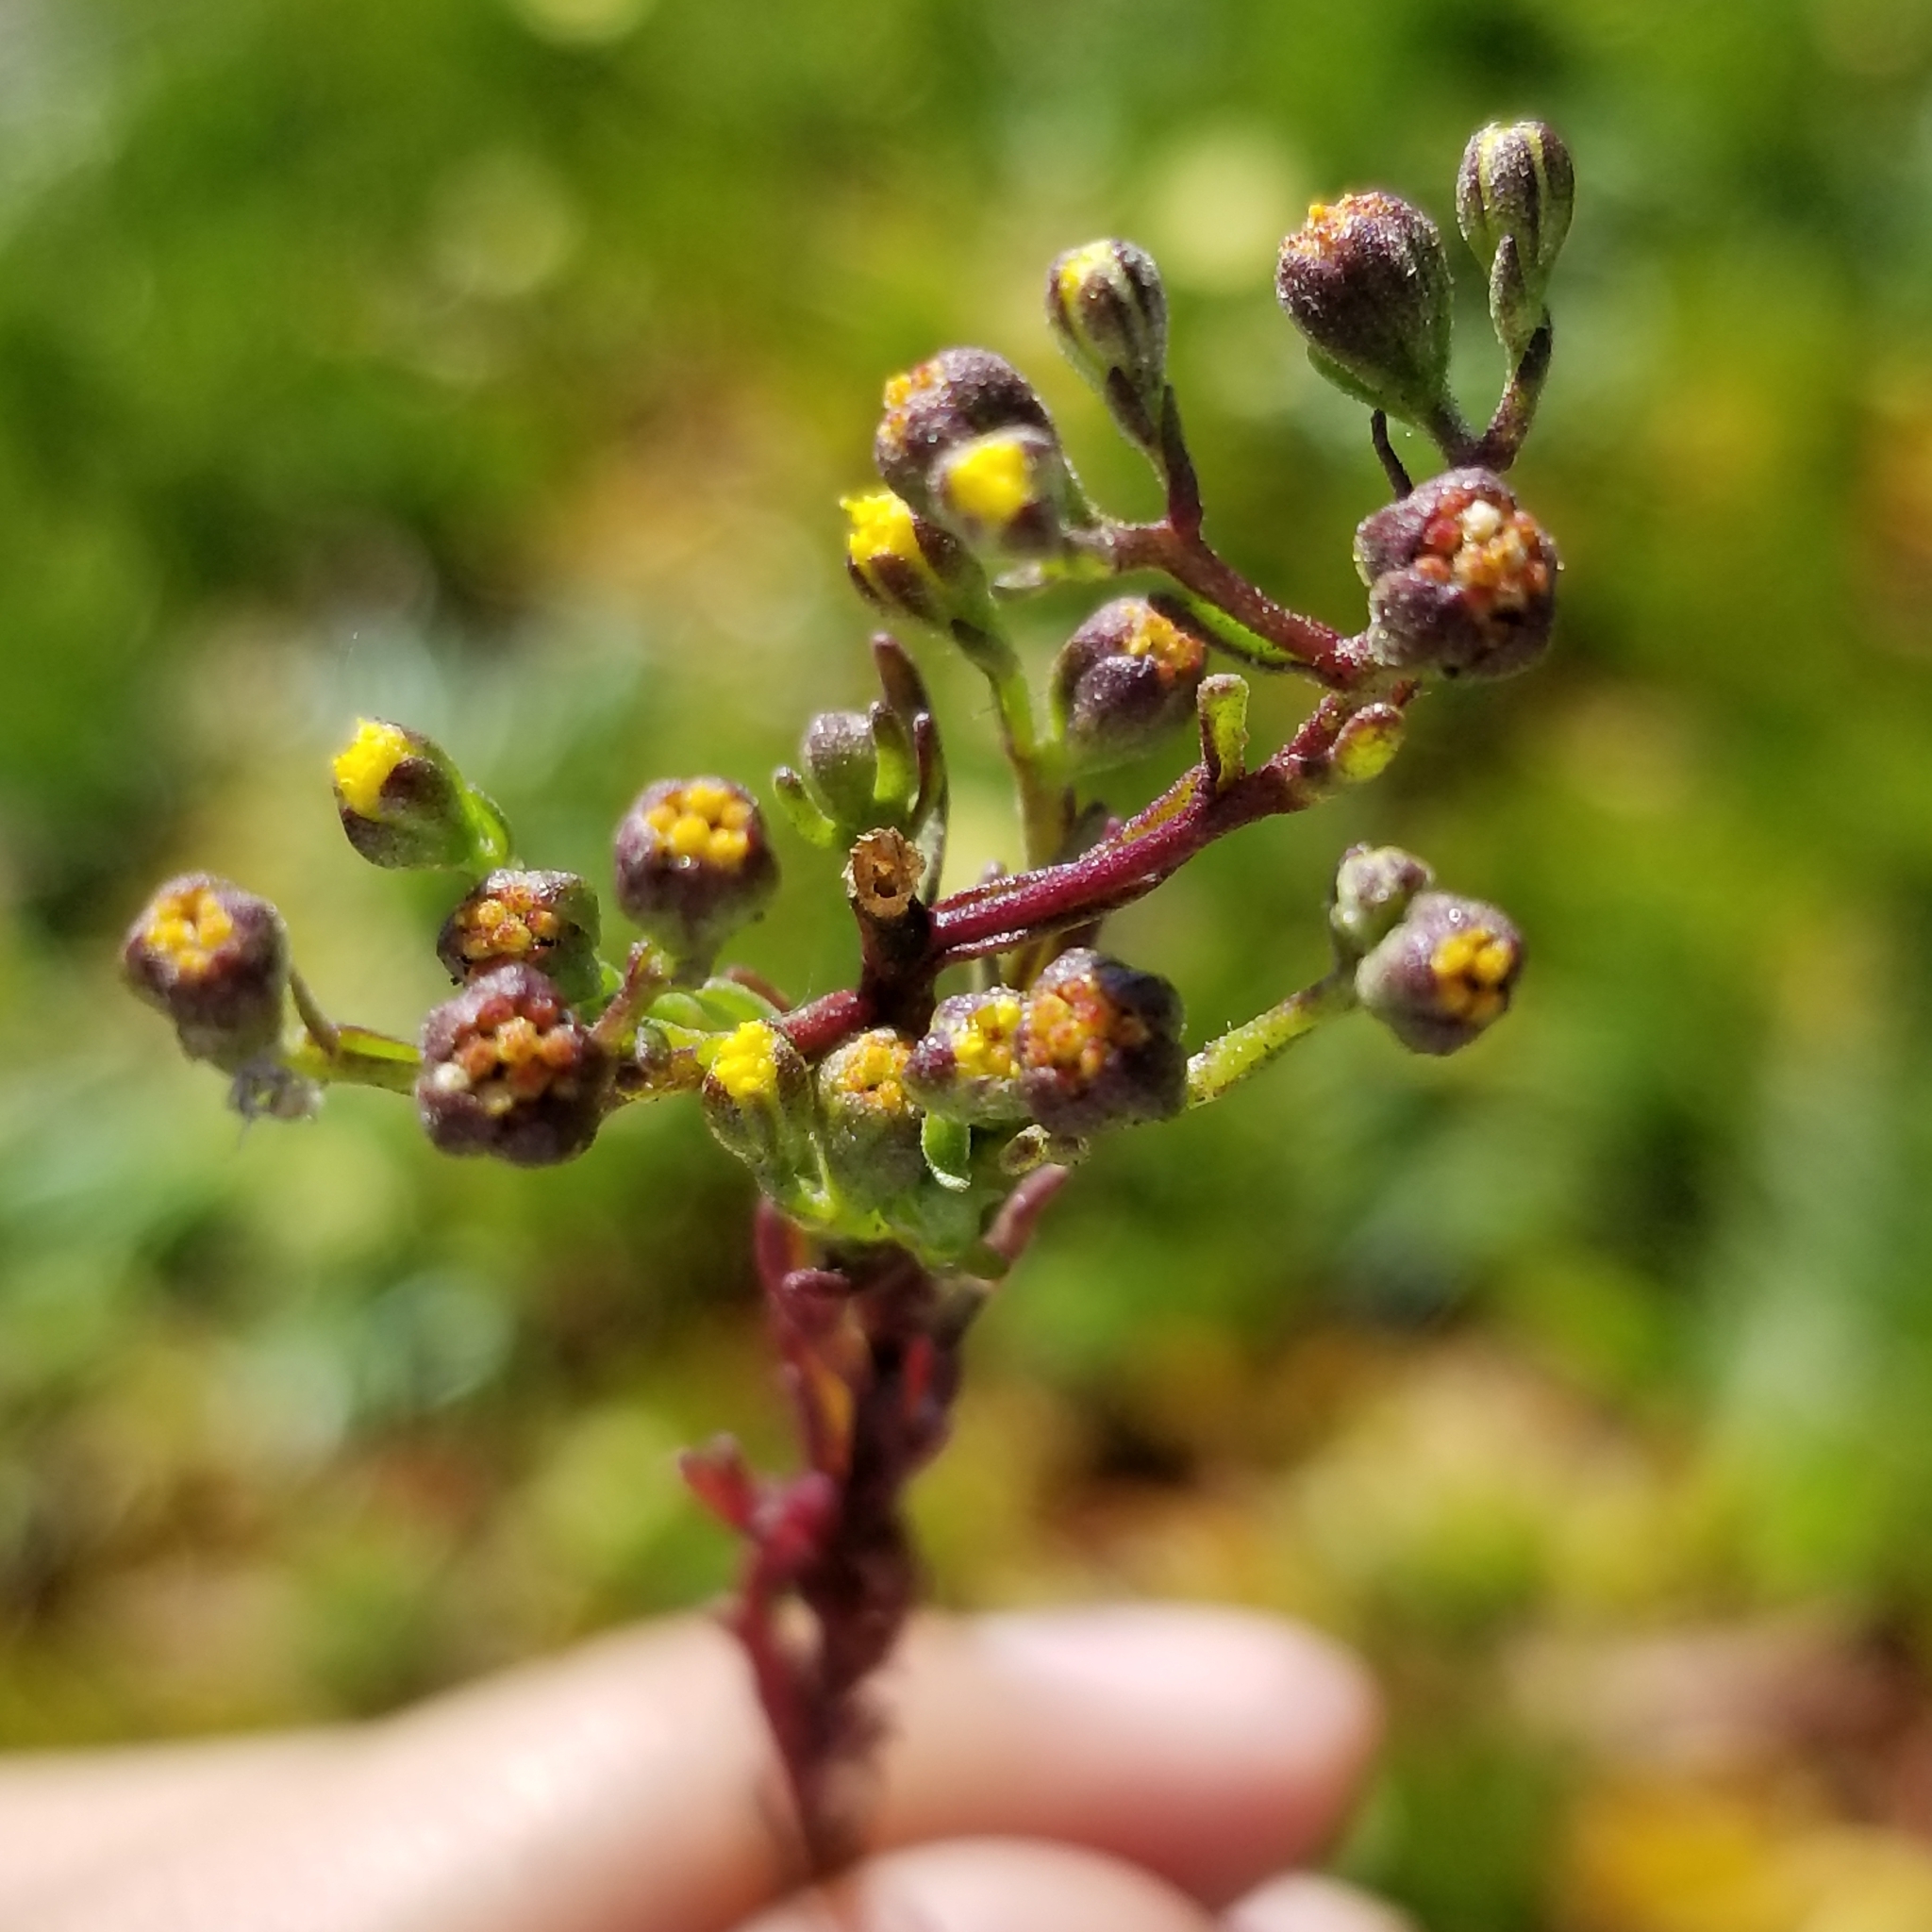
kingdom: Plantae
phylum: Tracheophyta
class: Magnoliopsida
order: Asterales
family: Asteraceae
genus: Amblyopappus
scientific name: Amblyopappus pusillus
